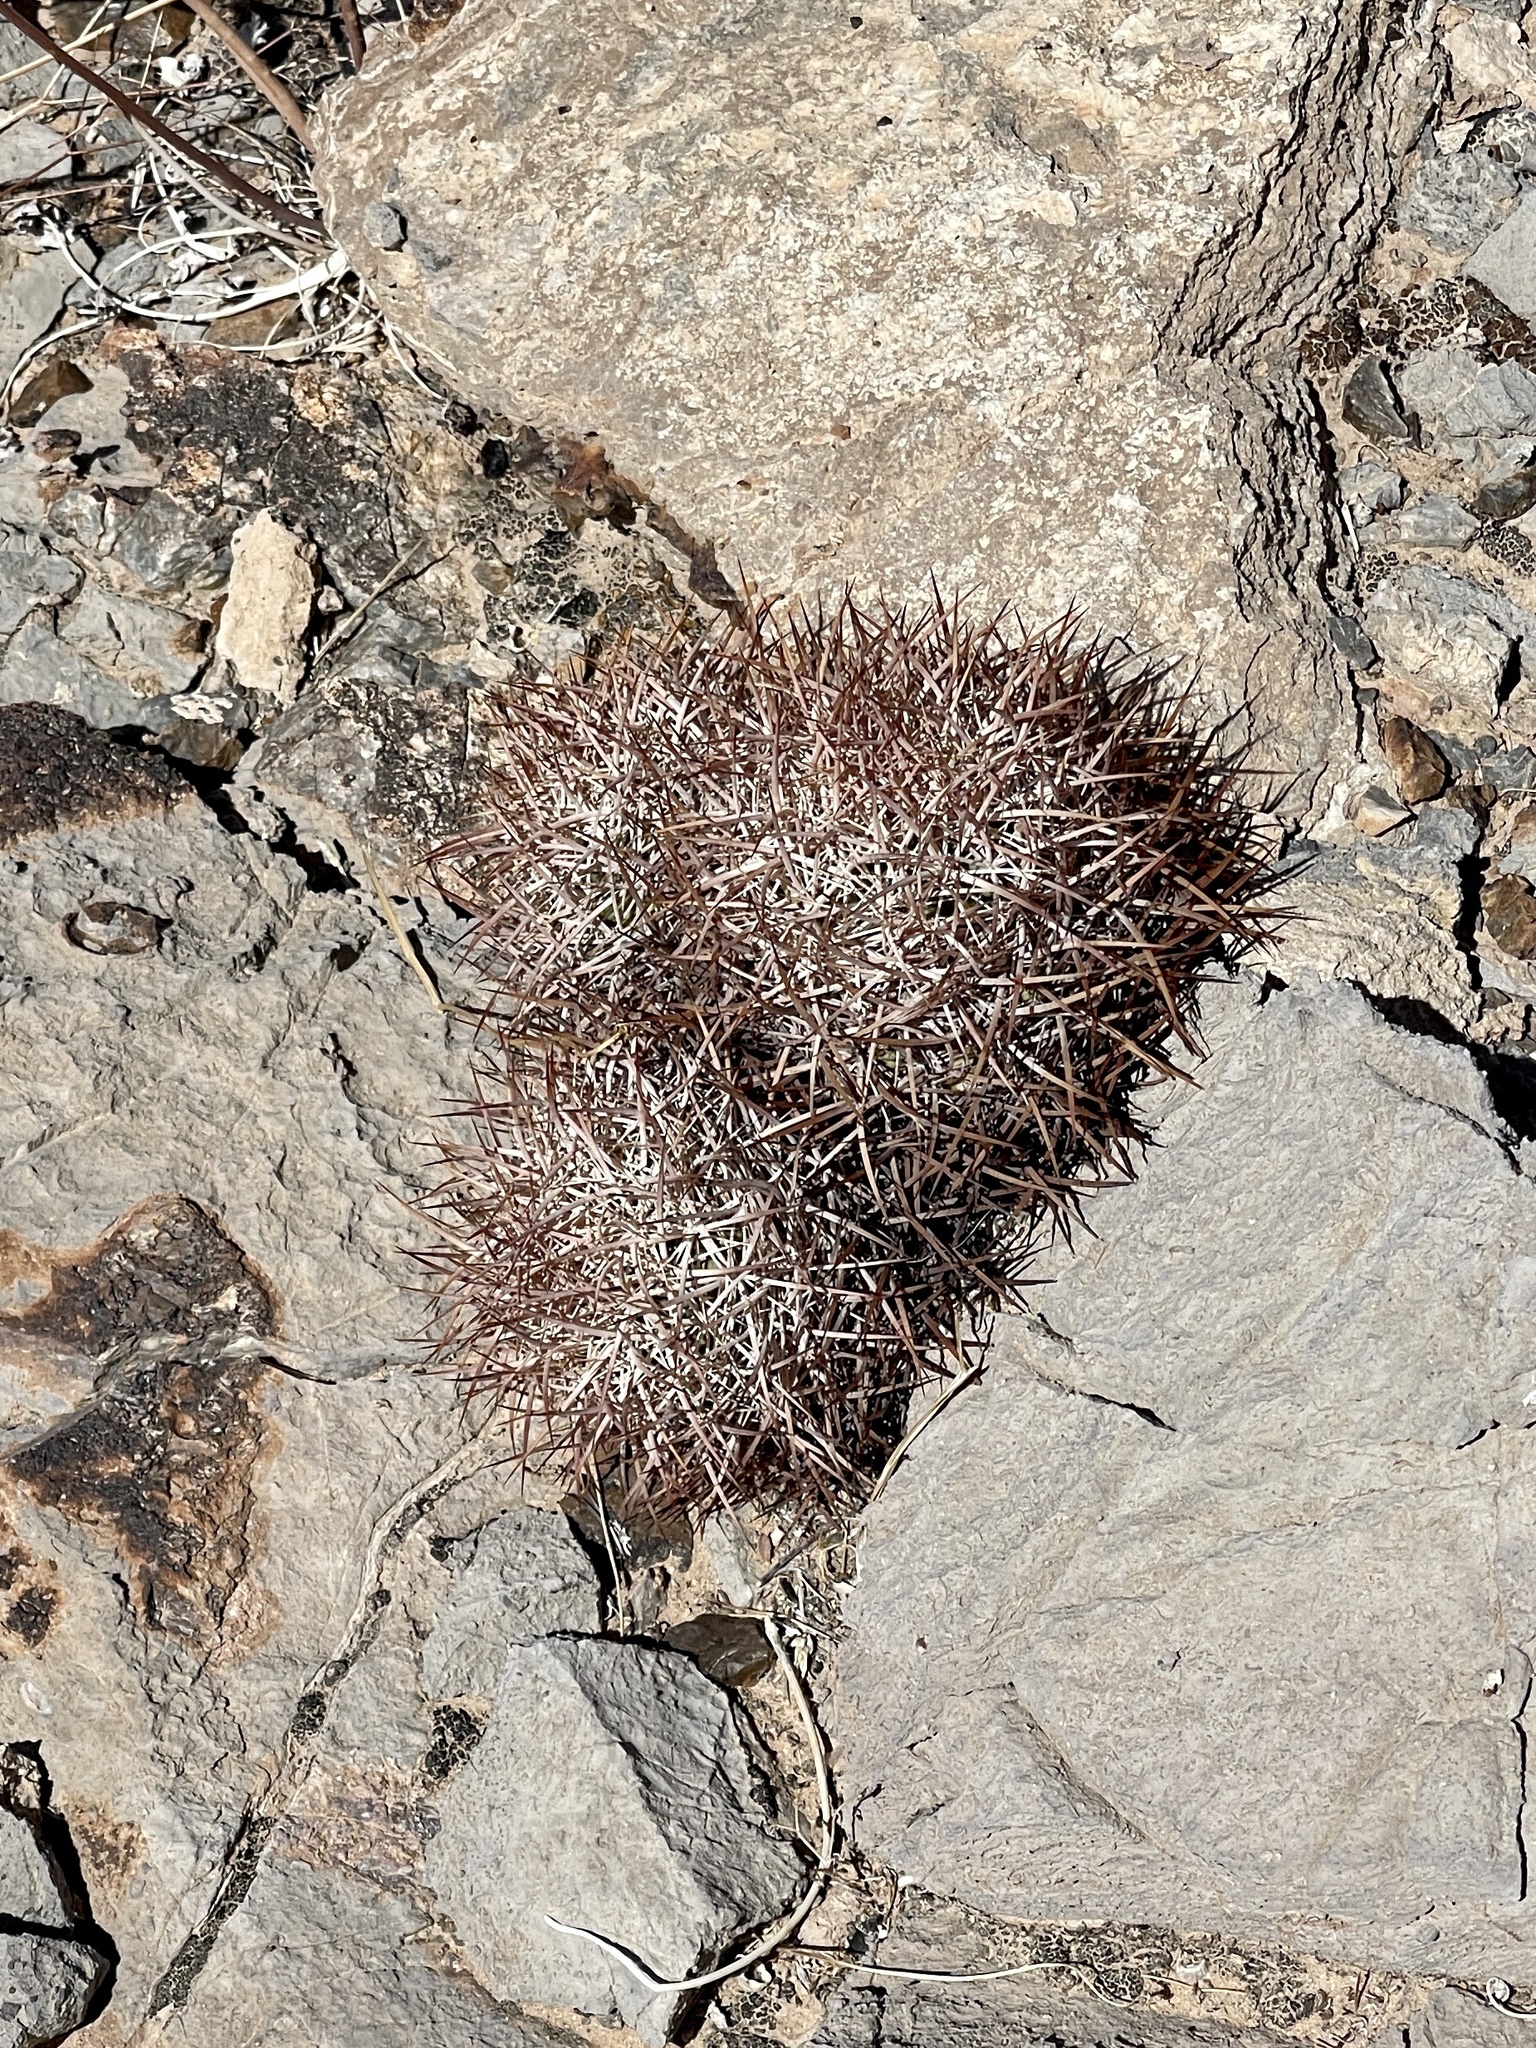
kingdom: Plantae
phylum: Tracheophyta
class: Magnoliopsida
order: Caryophyllales
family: Cactaceae
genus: Sclerocactus
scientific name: Sclerocactus johnsonii
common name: Eight-spine fishhook cactus
